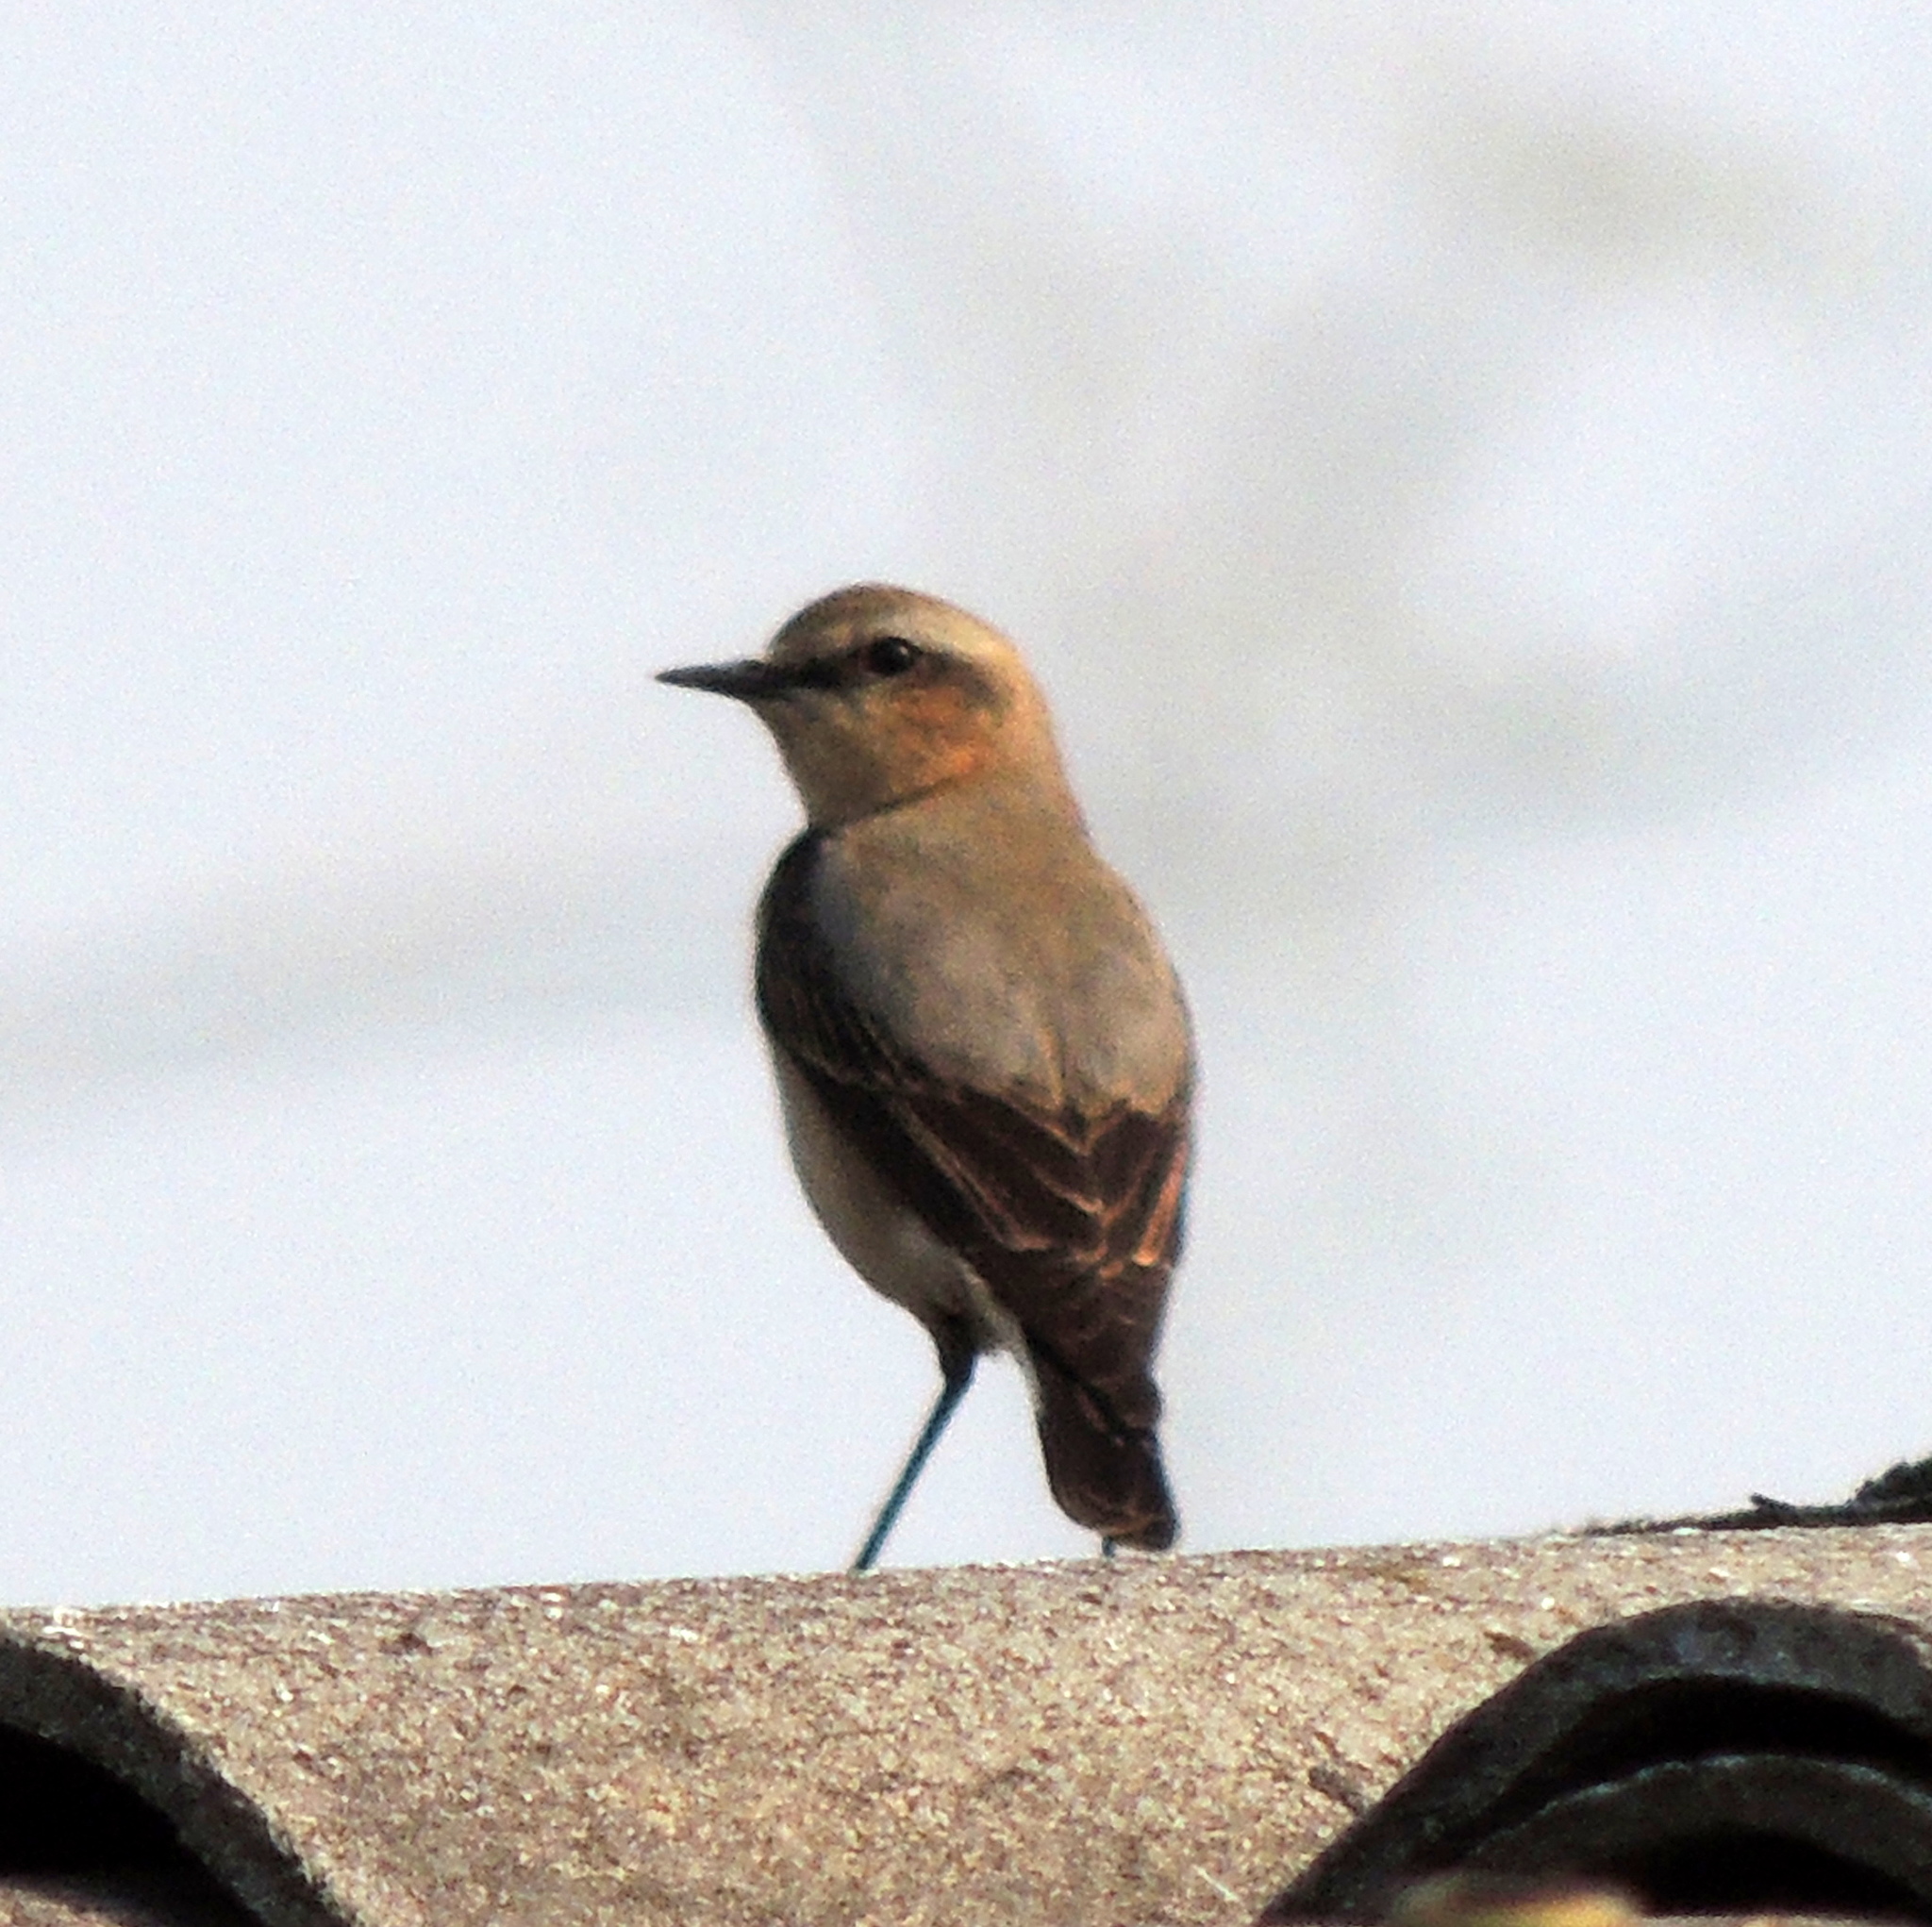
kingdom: Animalia
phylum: Chordata
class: Aves
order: Passeriformes
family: Muscicapidae
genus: Oenanthe
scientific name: Oenanthe oenanthe
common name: Northern wheatear
